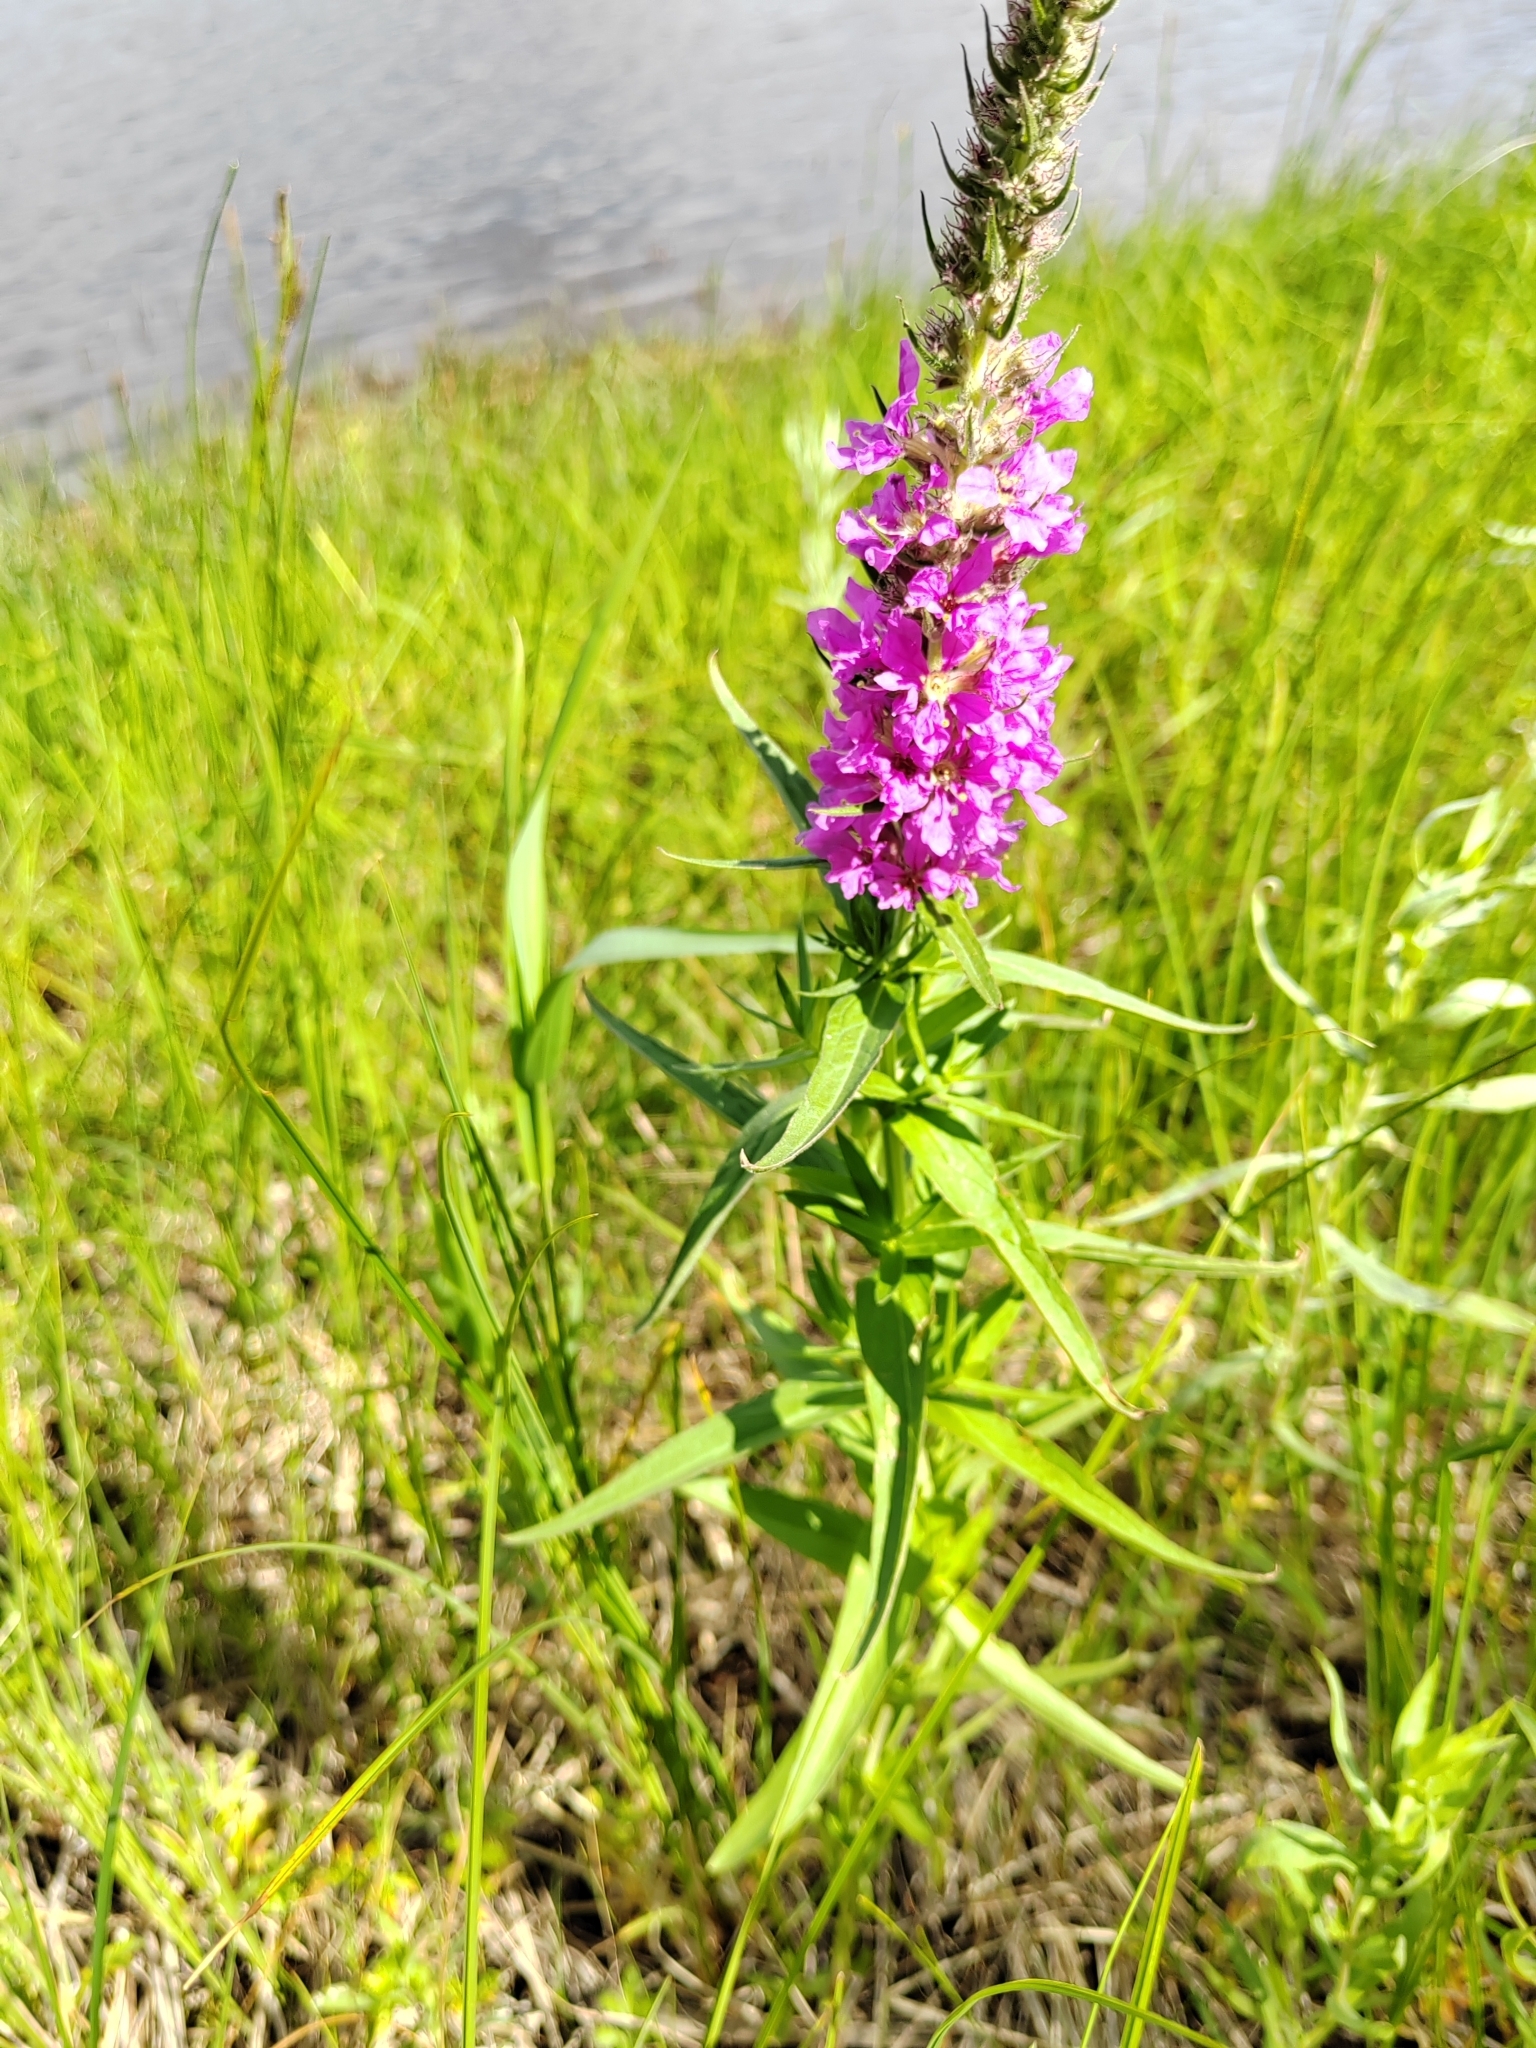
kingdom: Plantae
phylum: Tracheophyta
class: Magnoliopsida
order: Myrtales
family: Lythraceae
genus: Lythrum
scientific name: Lythrum salicaria
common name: Purple loosestrife
